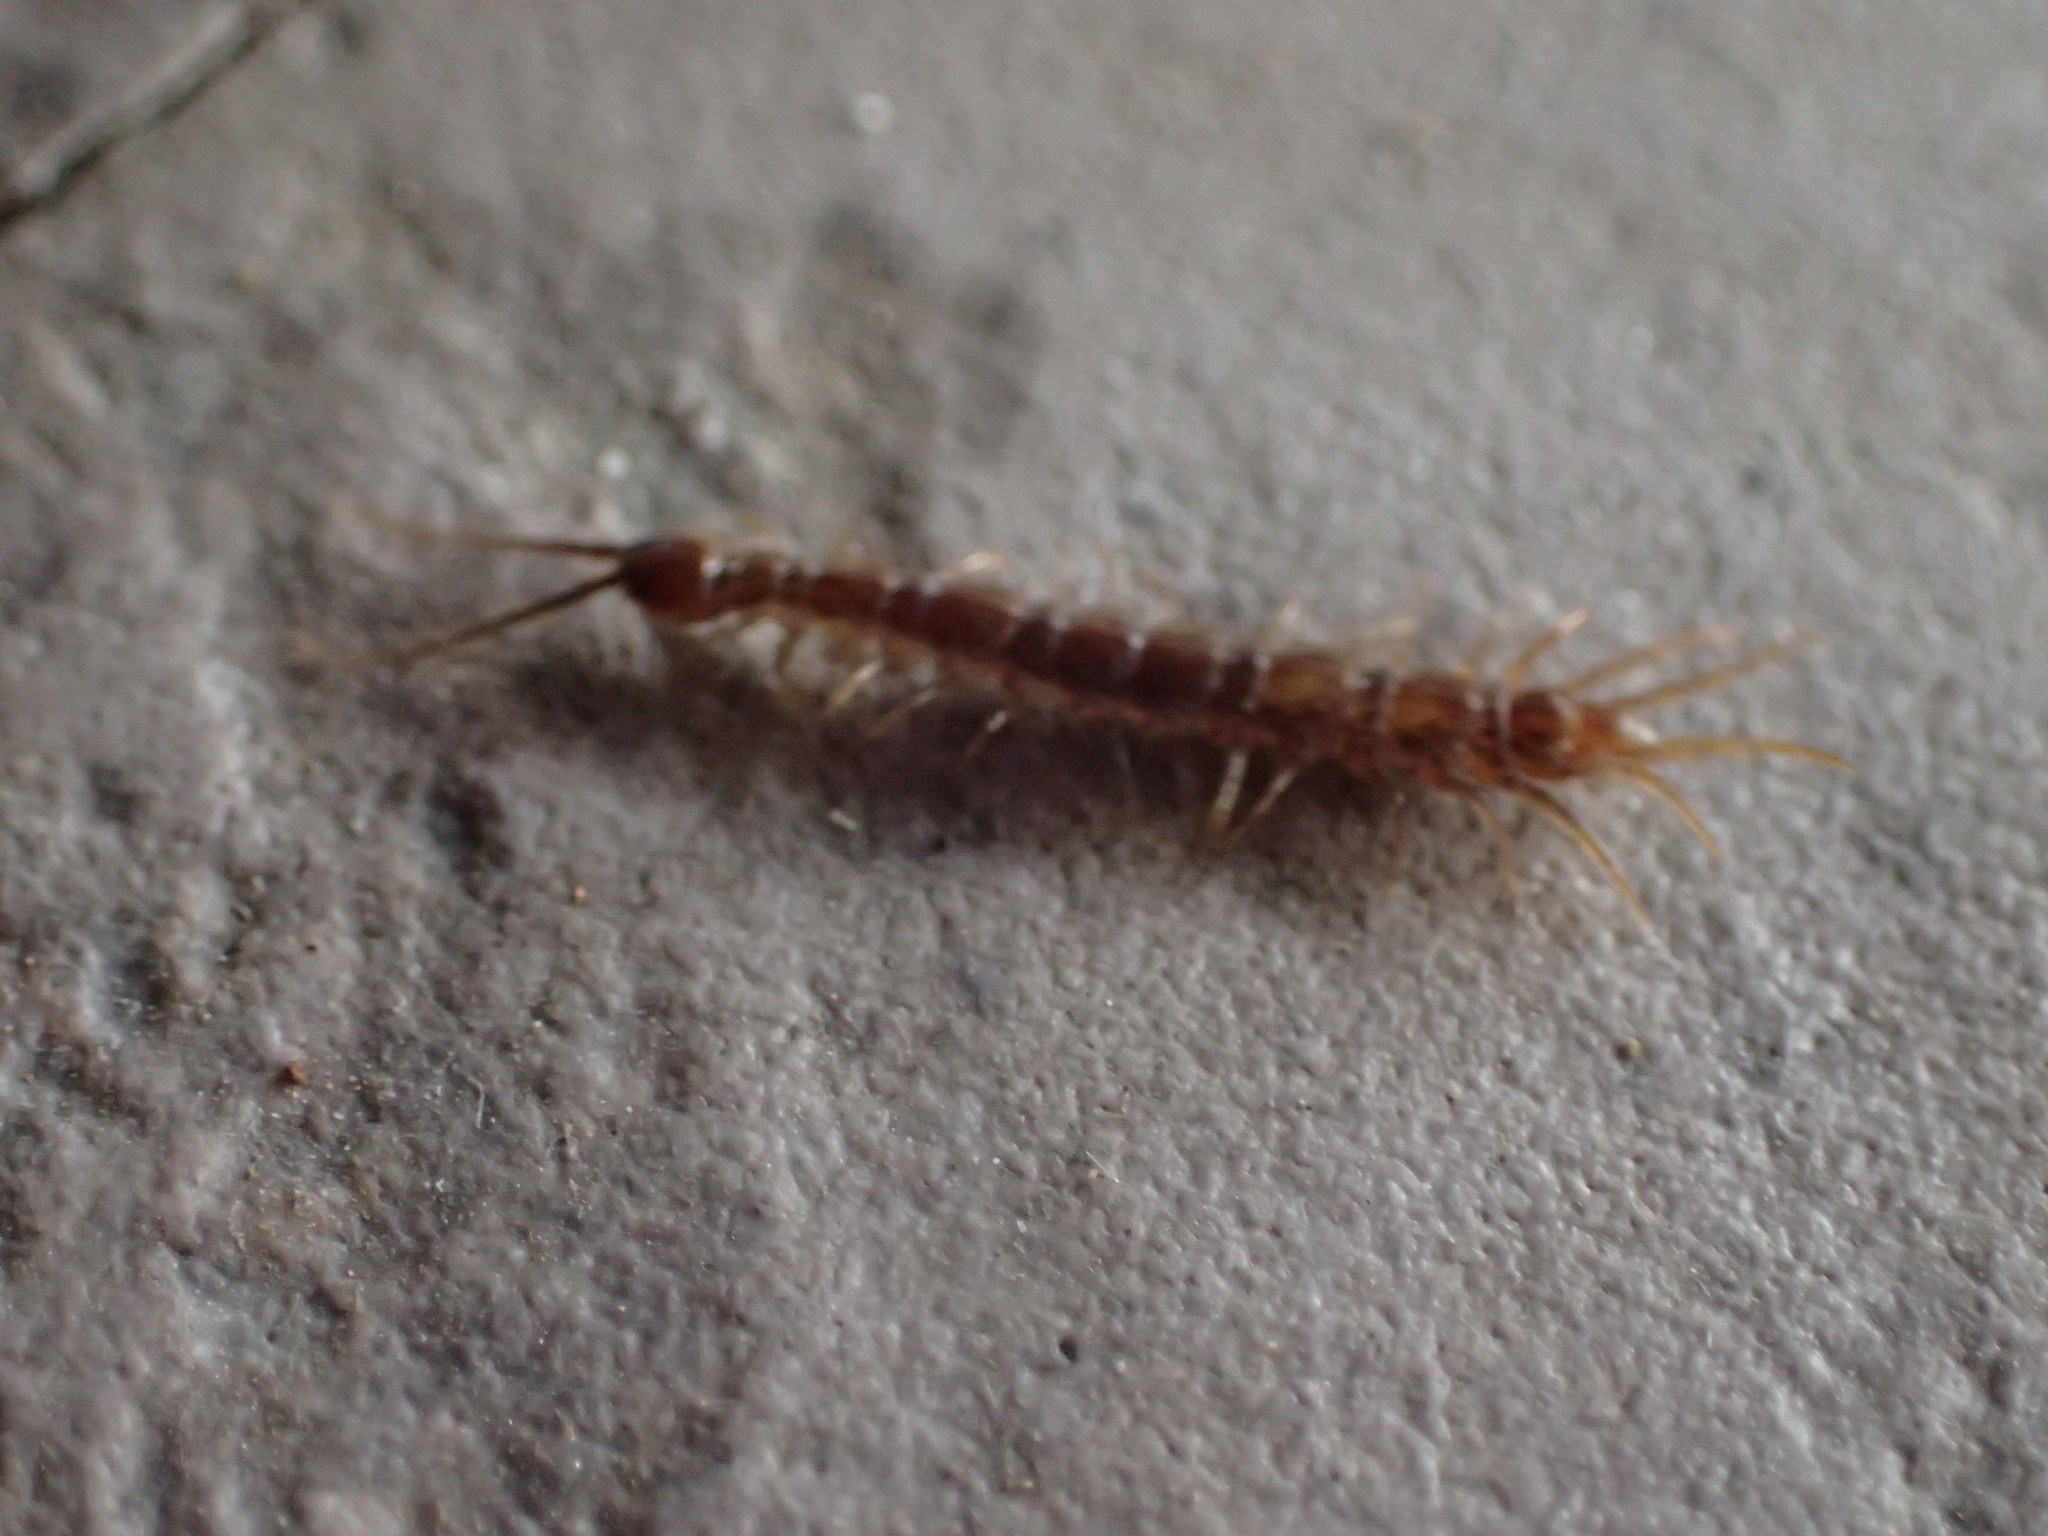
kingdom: Animalia
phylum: Arthropoda
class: Chilopoda
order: Lithobiomorpha
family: Lithobiidae
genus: Lithobius
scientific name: Lithobius forficatus
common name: Centipede
